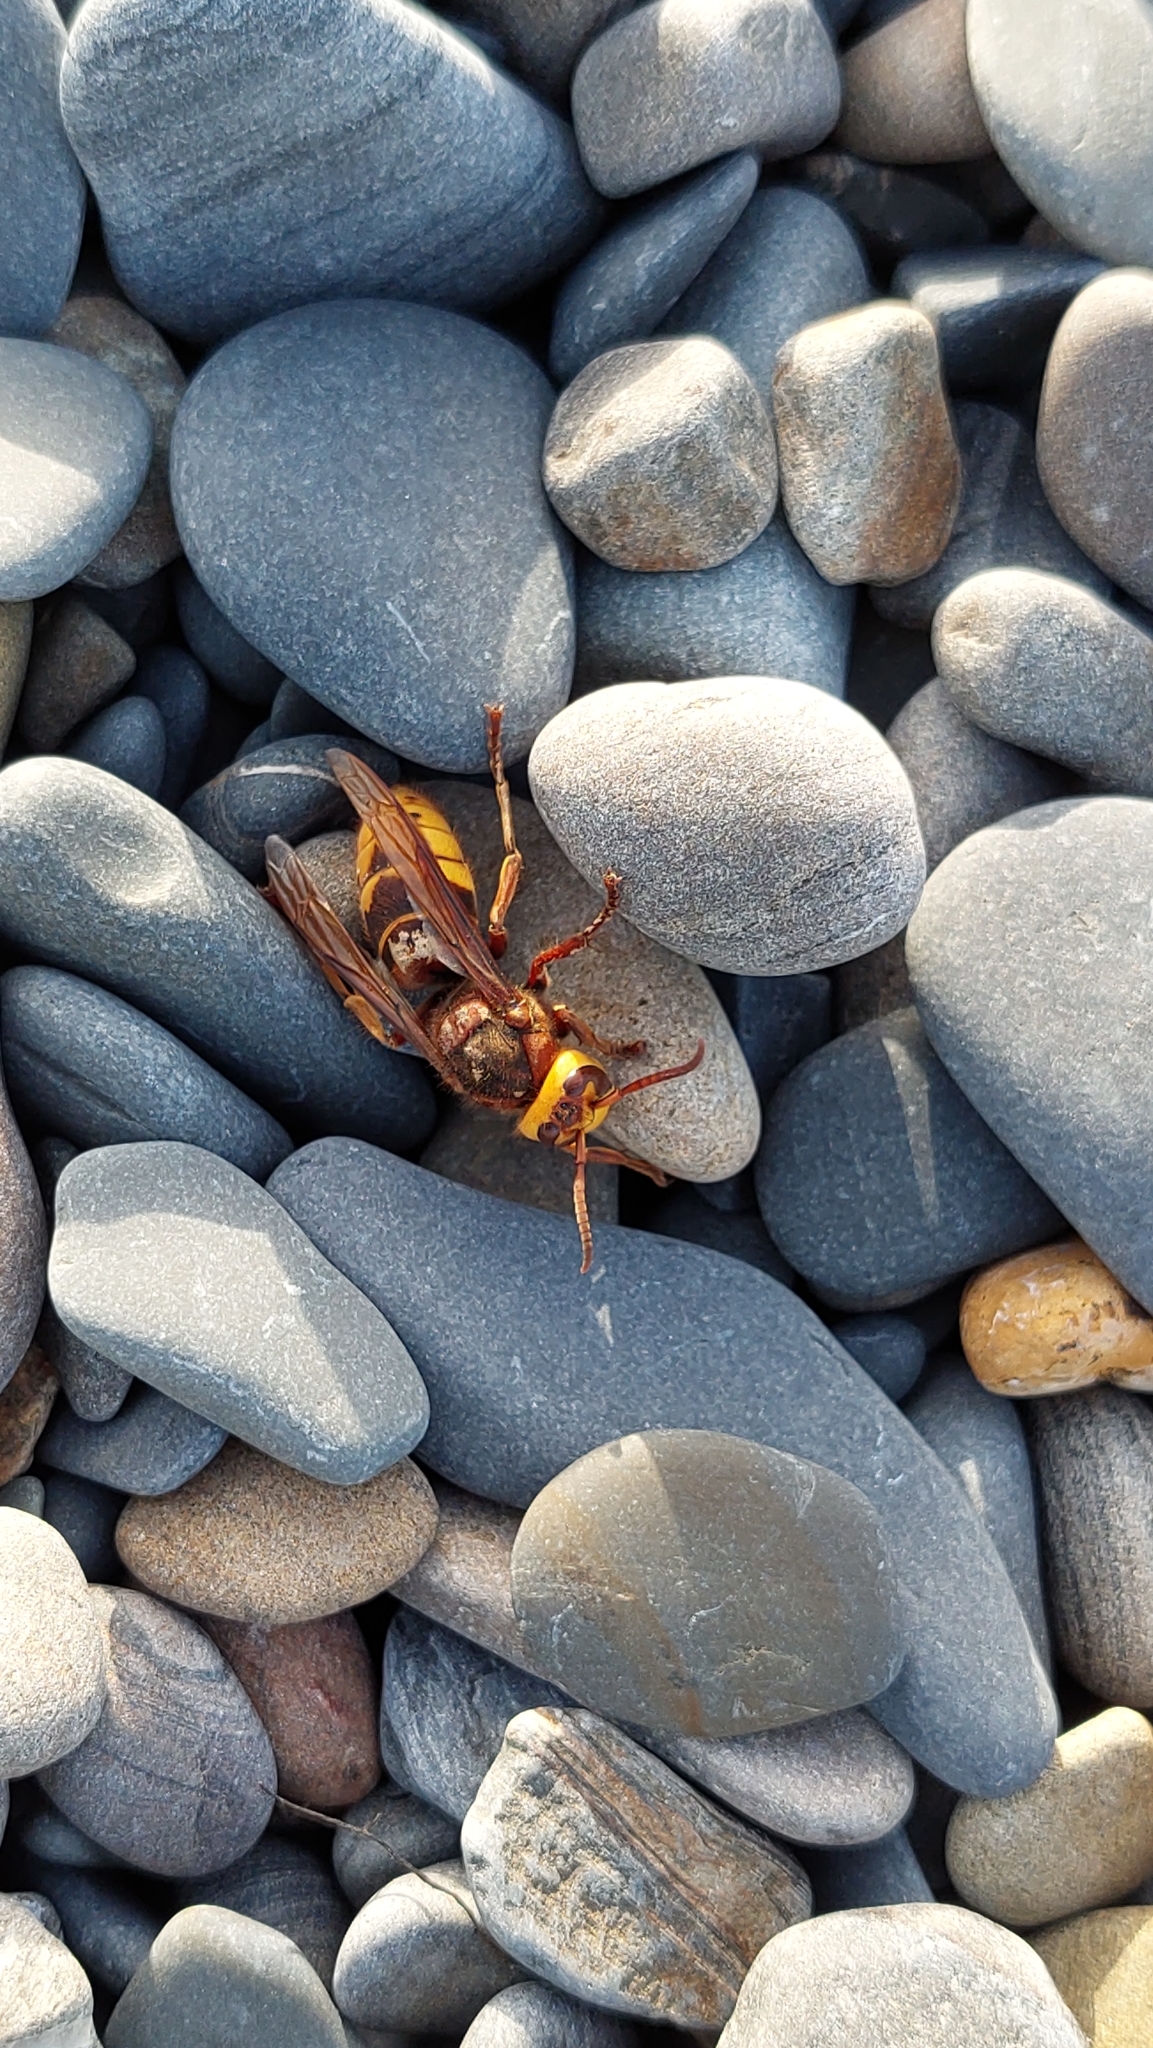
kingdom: Animalia
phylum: Arthropoda
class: Insecta
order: Hymenoptera
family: Vespidae
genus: Vespa
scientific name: Vespa crabro
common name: Hornet
